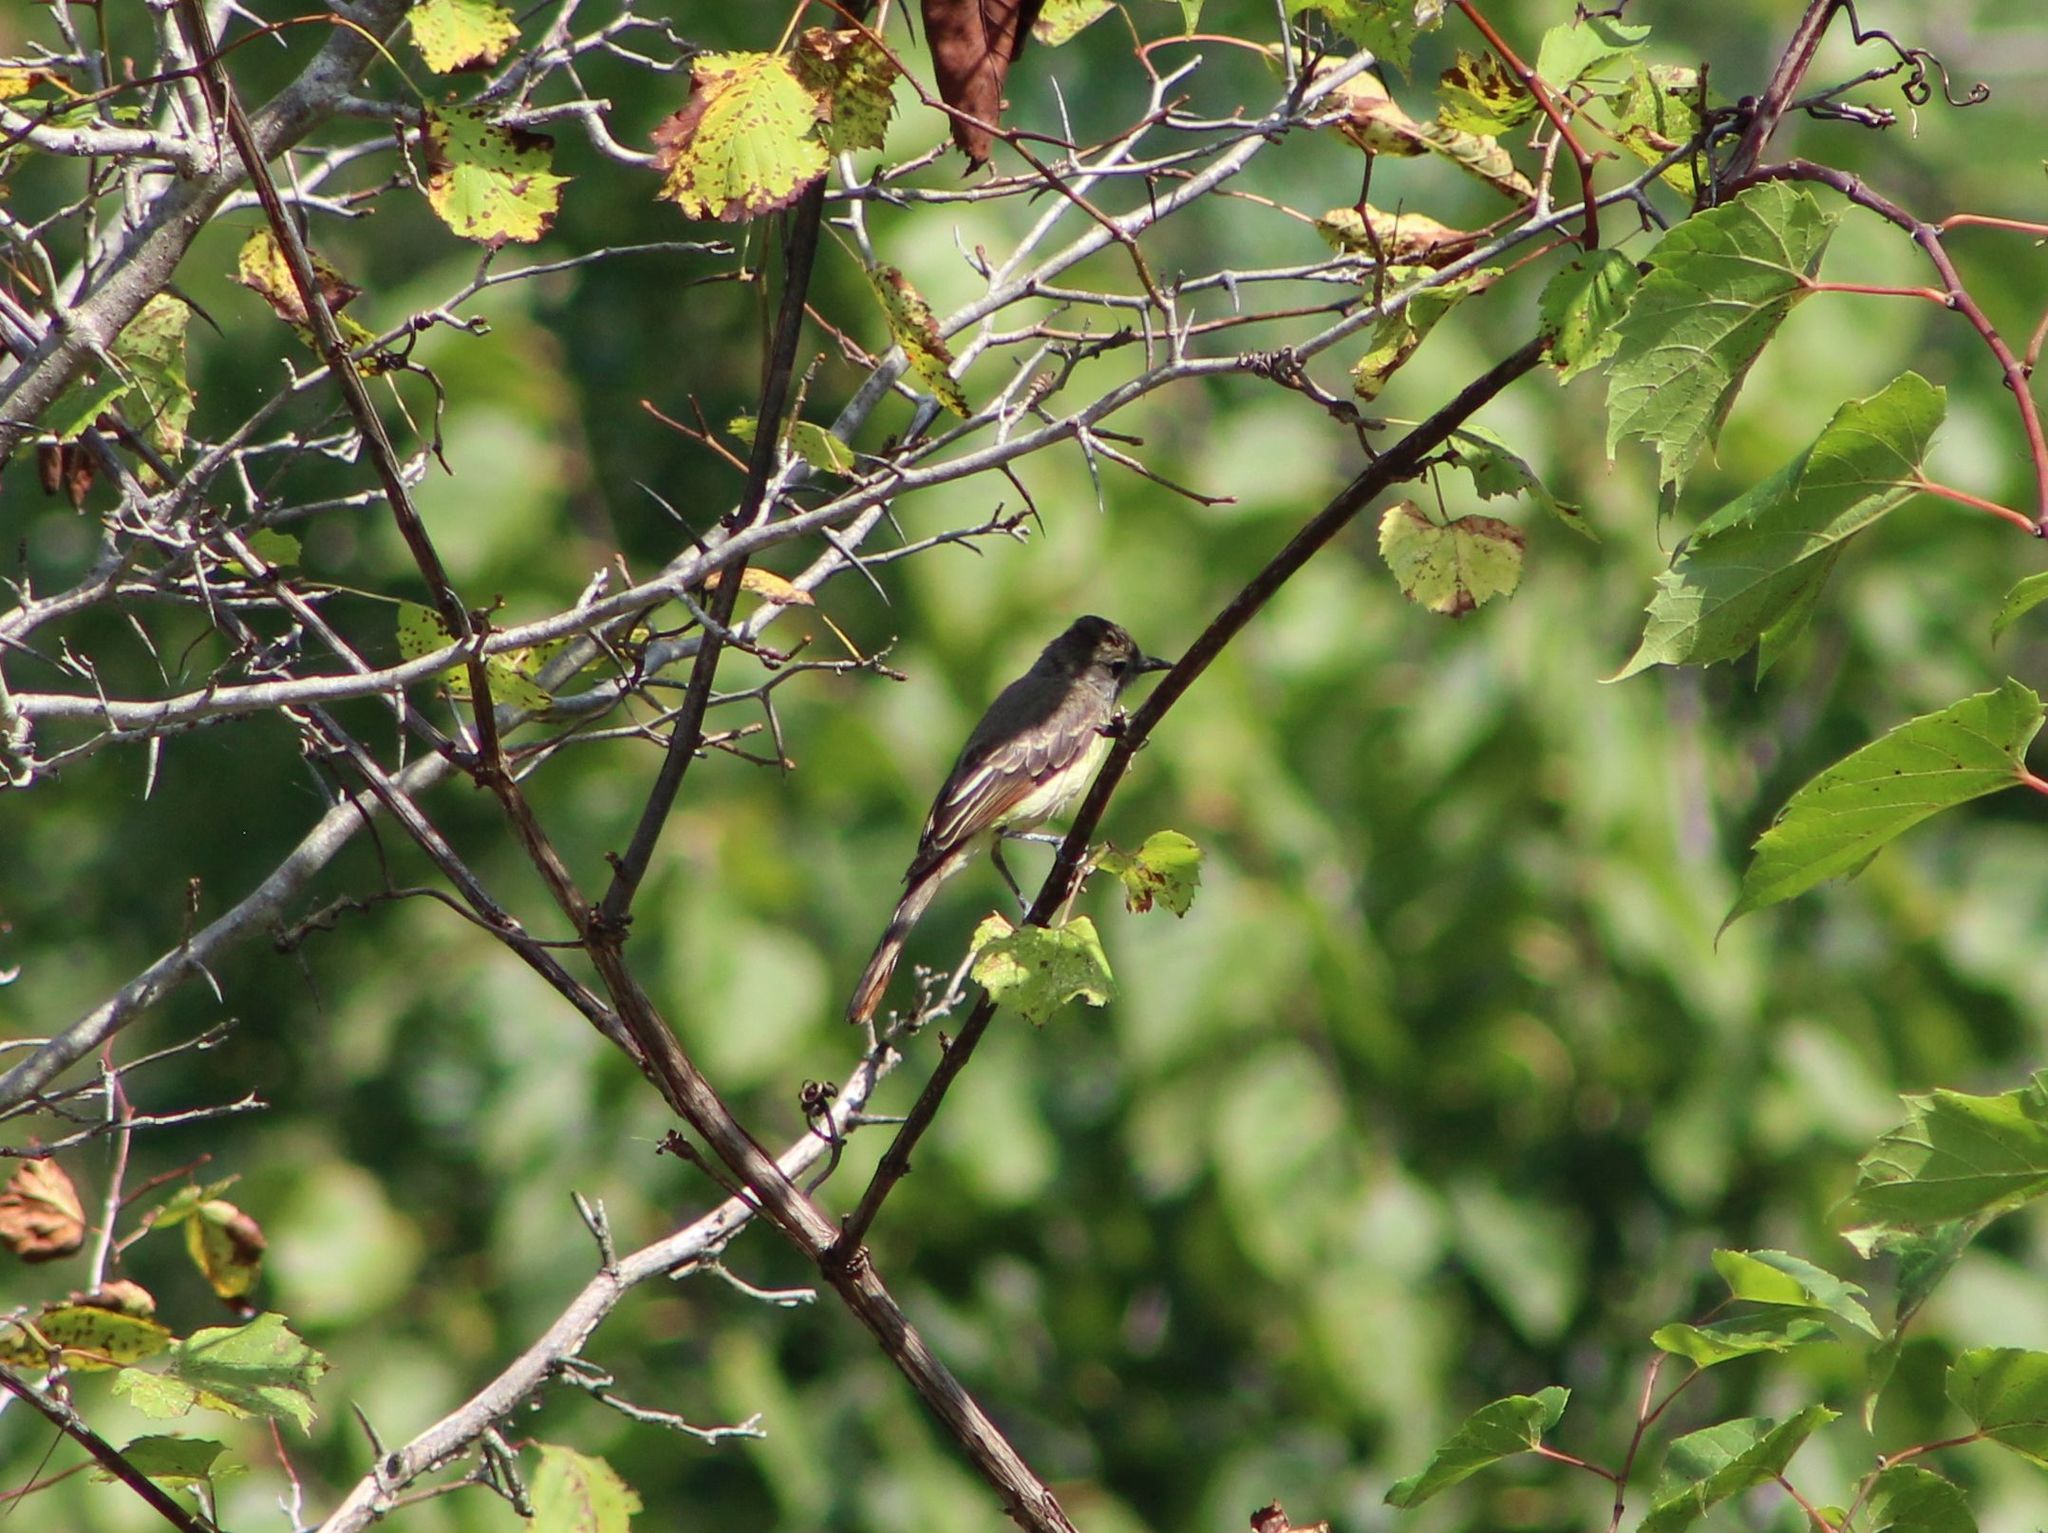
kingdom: Animalia
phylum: Chordata
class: Aves
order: Passeriformes
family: Tyrannidae
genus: Myiarchus
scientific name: Myiarchus crinitus
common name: Great crested flycatcher
